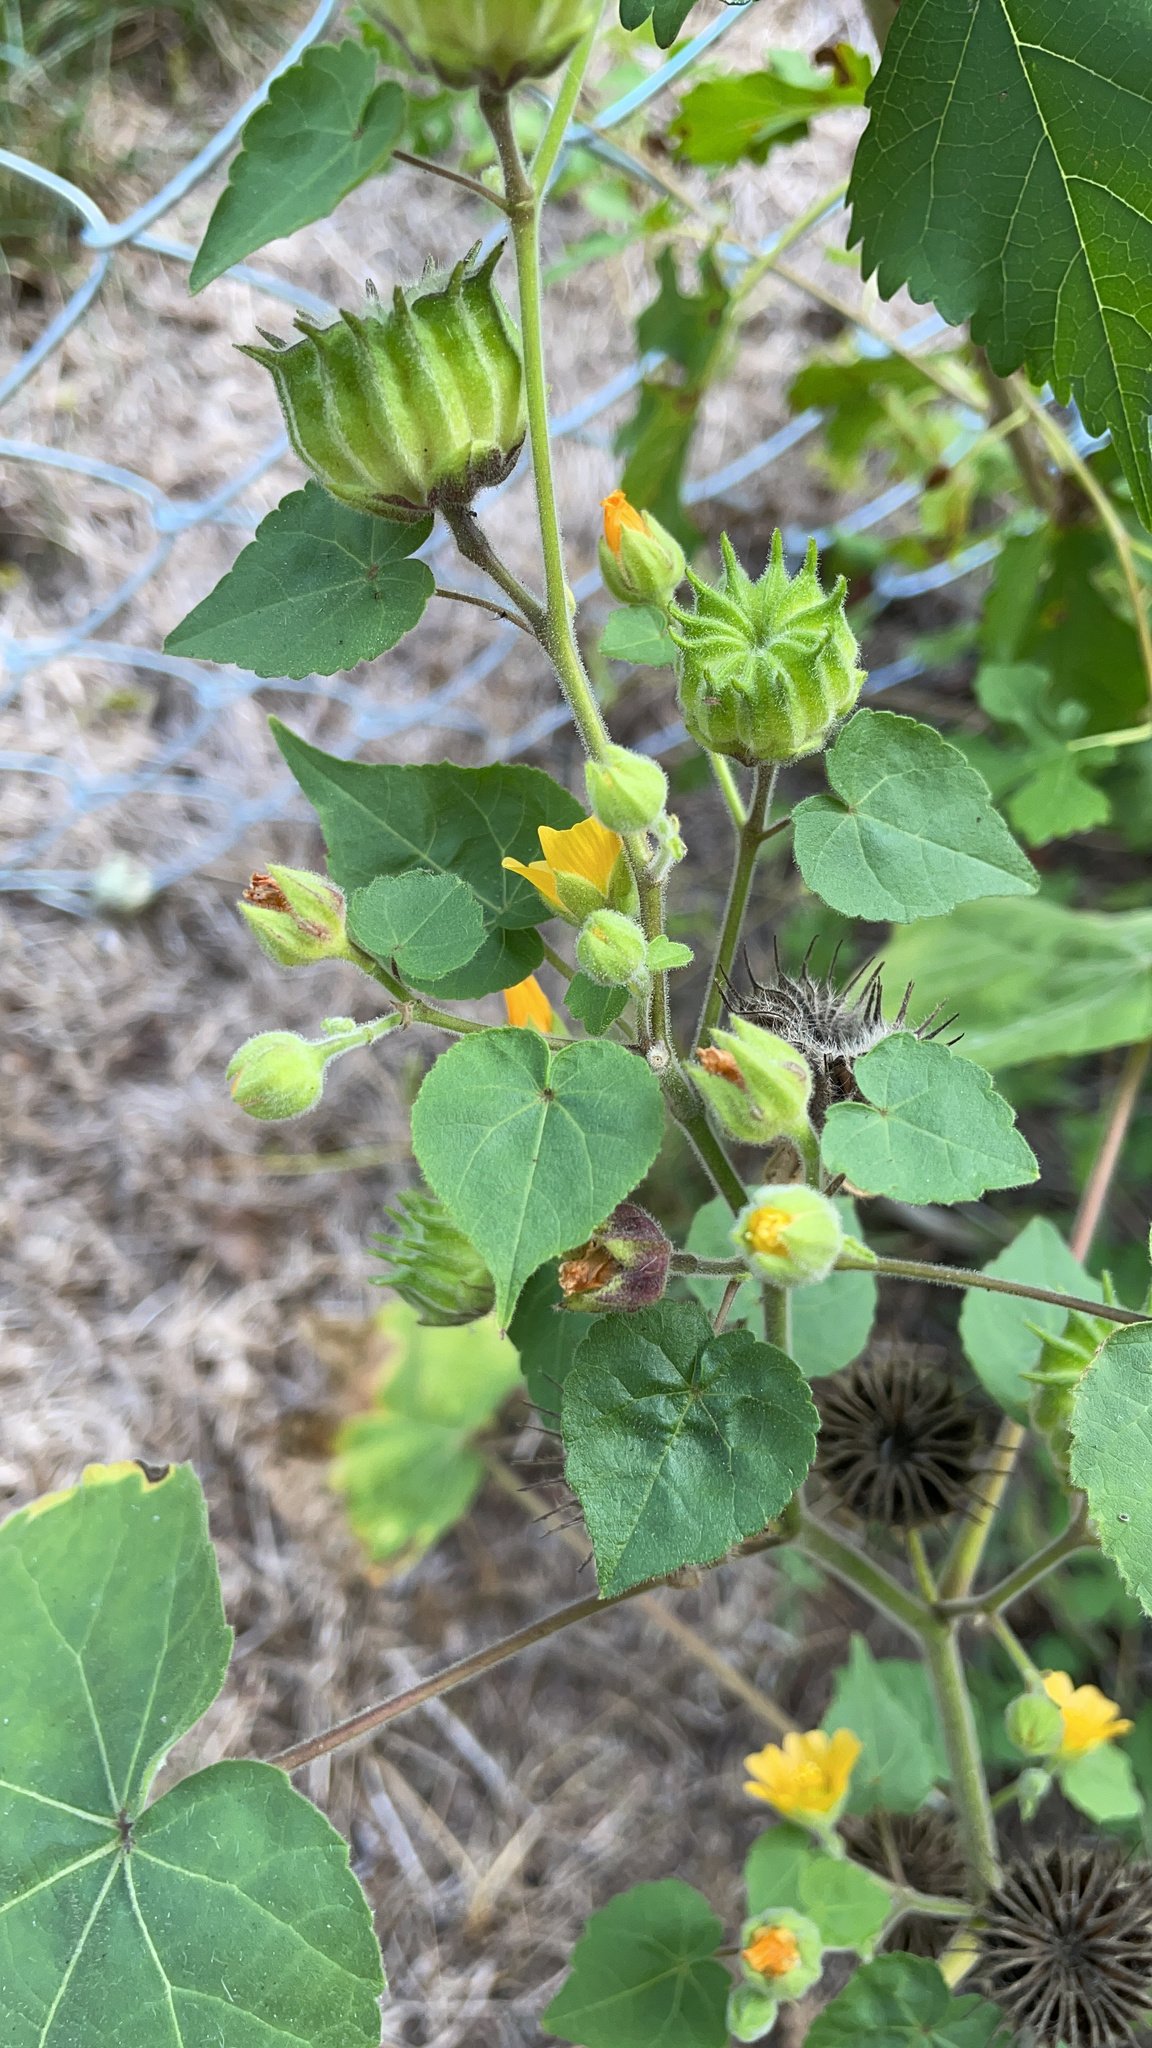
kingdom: Plantae
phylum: Tracheophyta
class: Magnoliopsida
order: Malvales
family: Malvaceae
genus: Abutilon
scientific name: Abutilon theophrasti
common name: Velvetleaf
